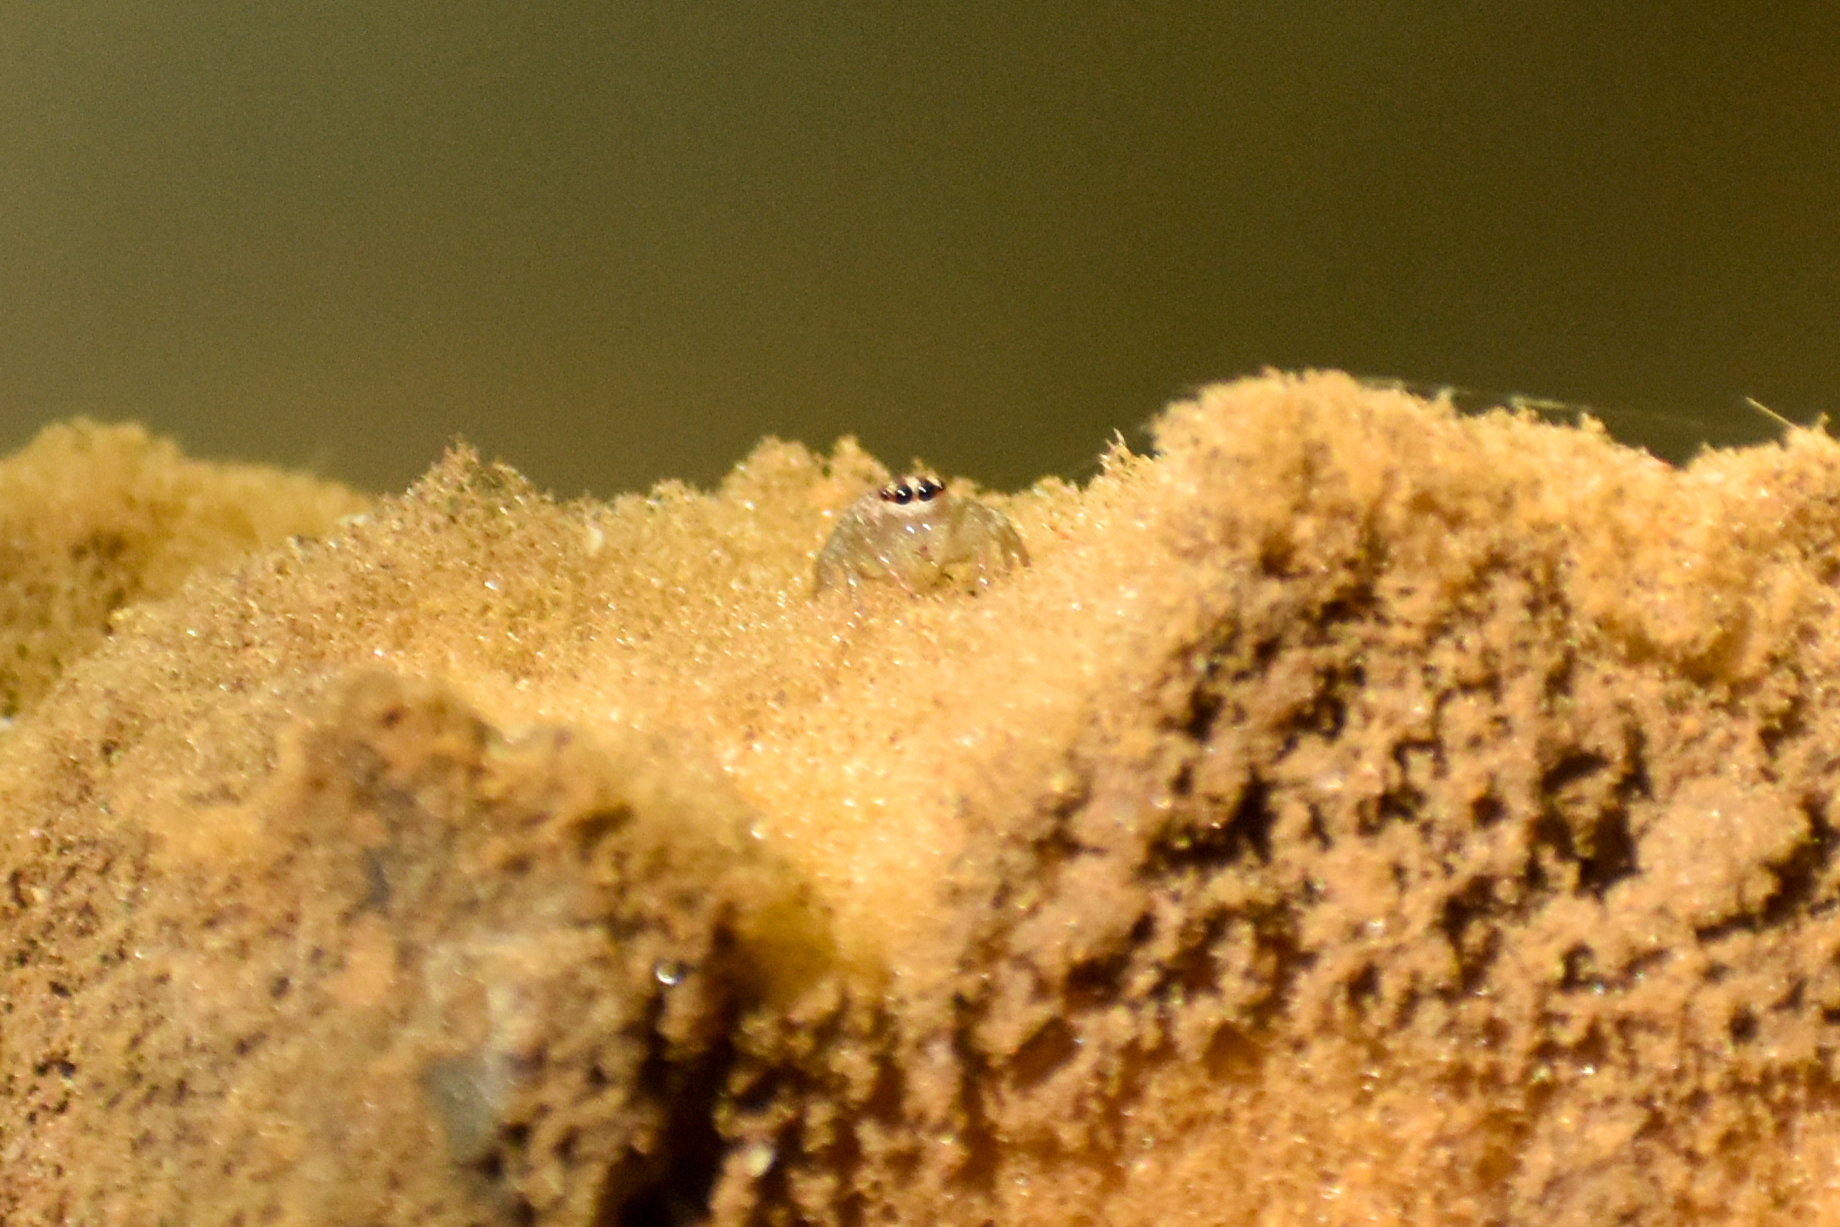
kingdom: Animalia
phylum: Arthropoda
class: Arachnida
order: Araneae
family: Salticidae
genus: Chira
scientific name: Chira gounellei
